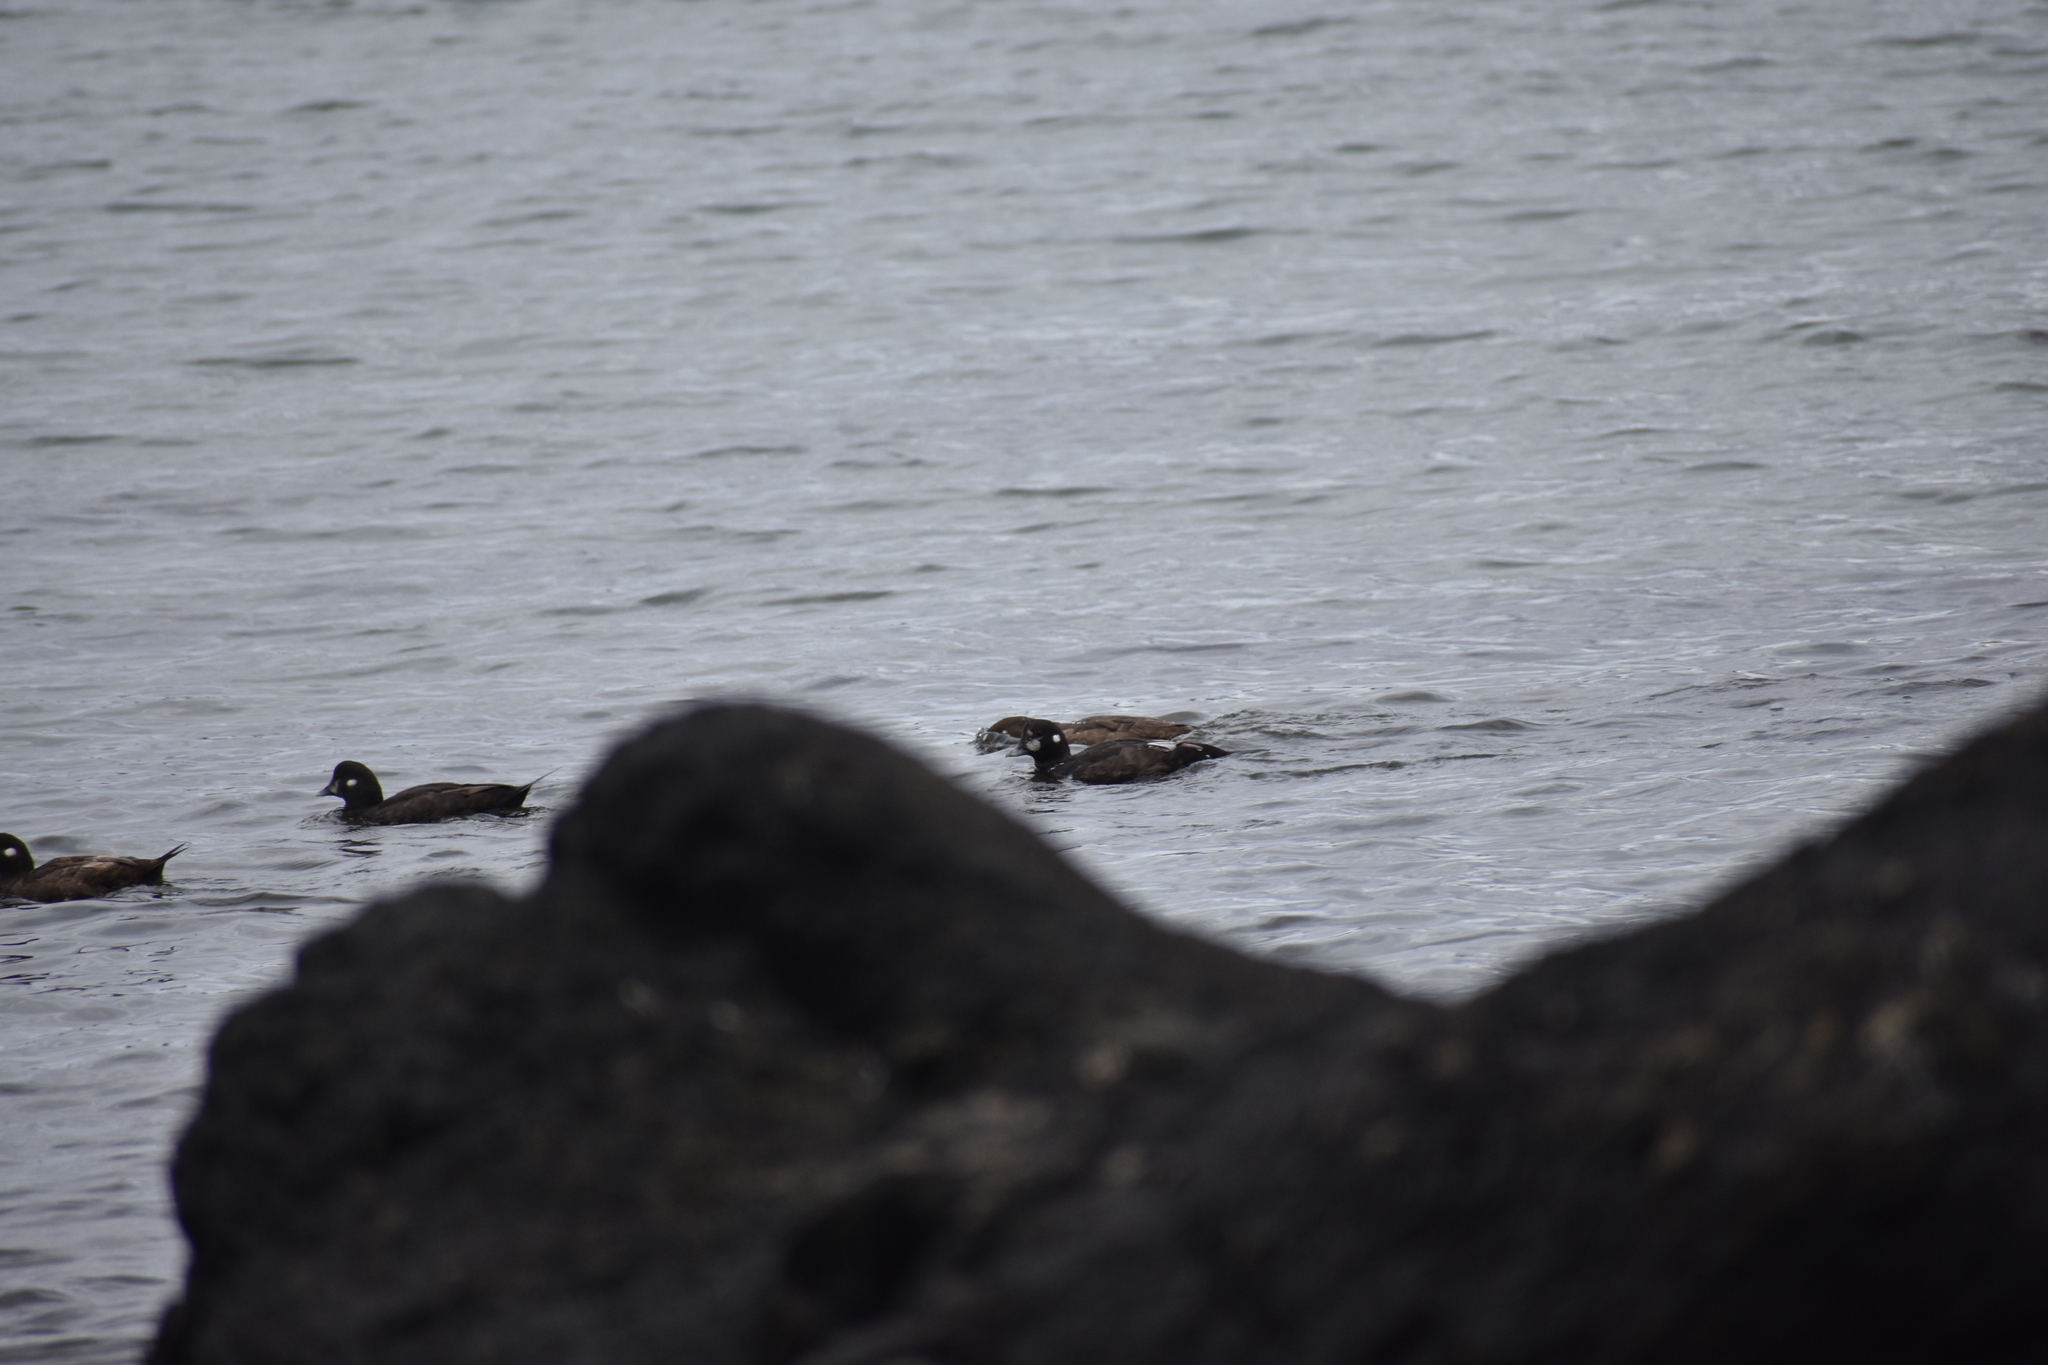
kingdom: Animalia
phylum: Chordata
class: Aves
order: Anseriformes
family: Anatidae
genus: Histrionicus
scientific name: Histrionicus histrionicus
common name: Harlequin duck
